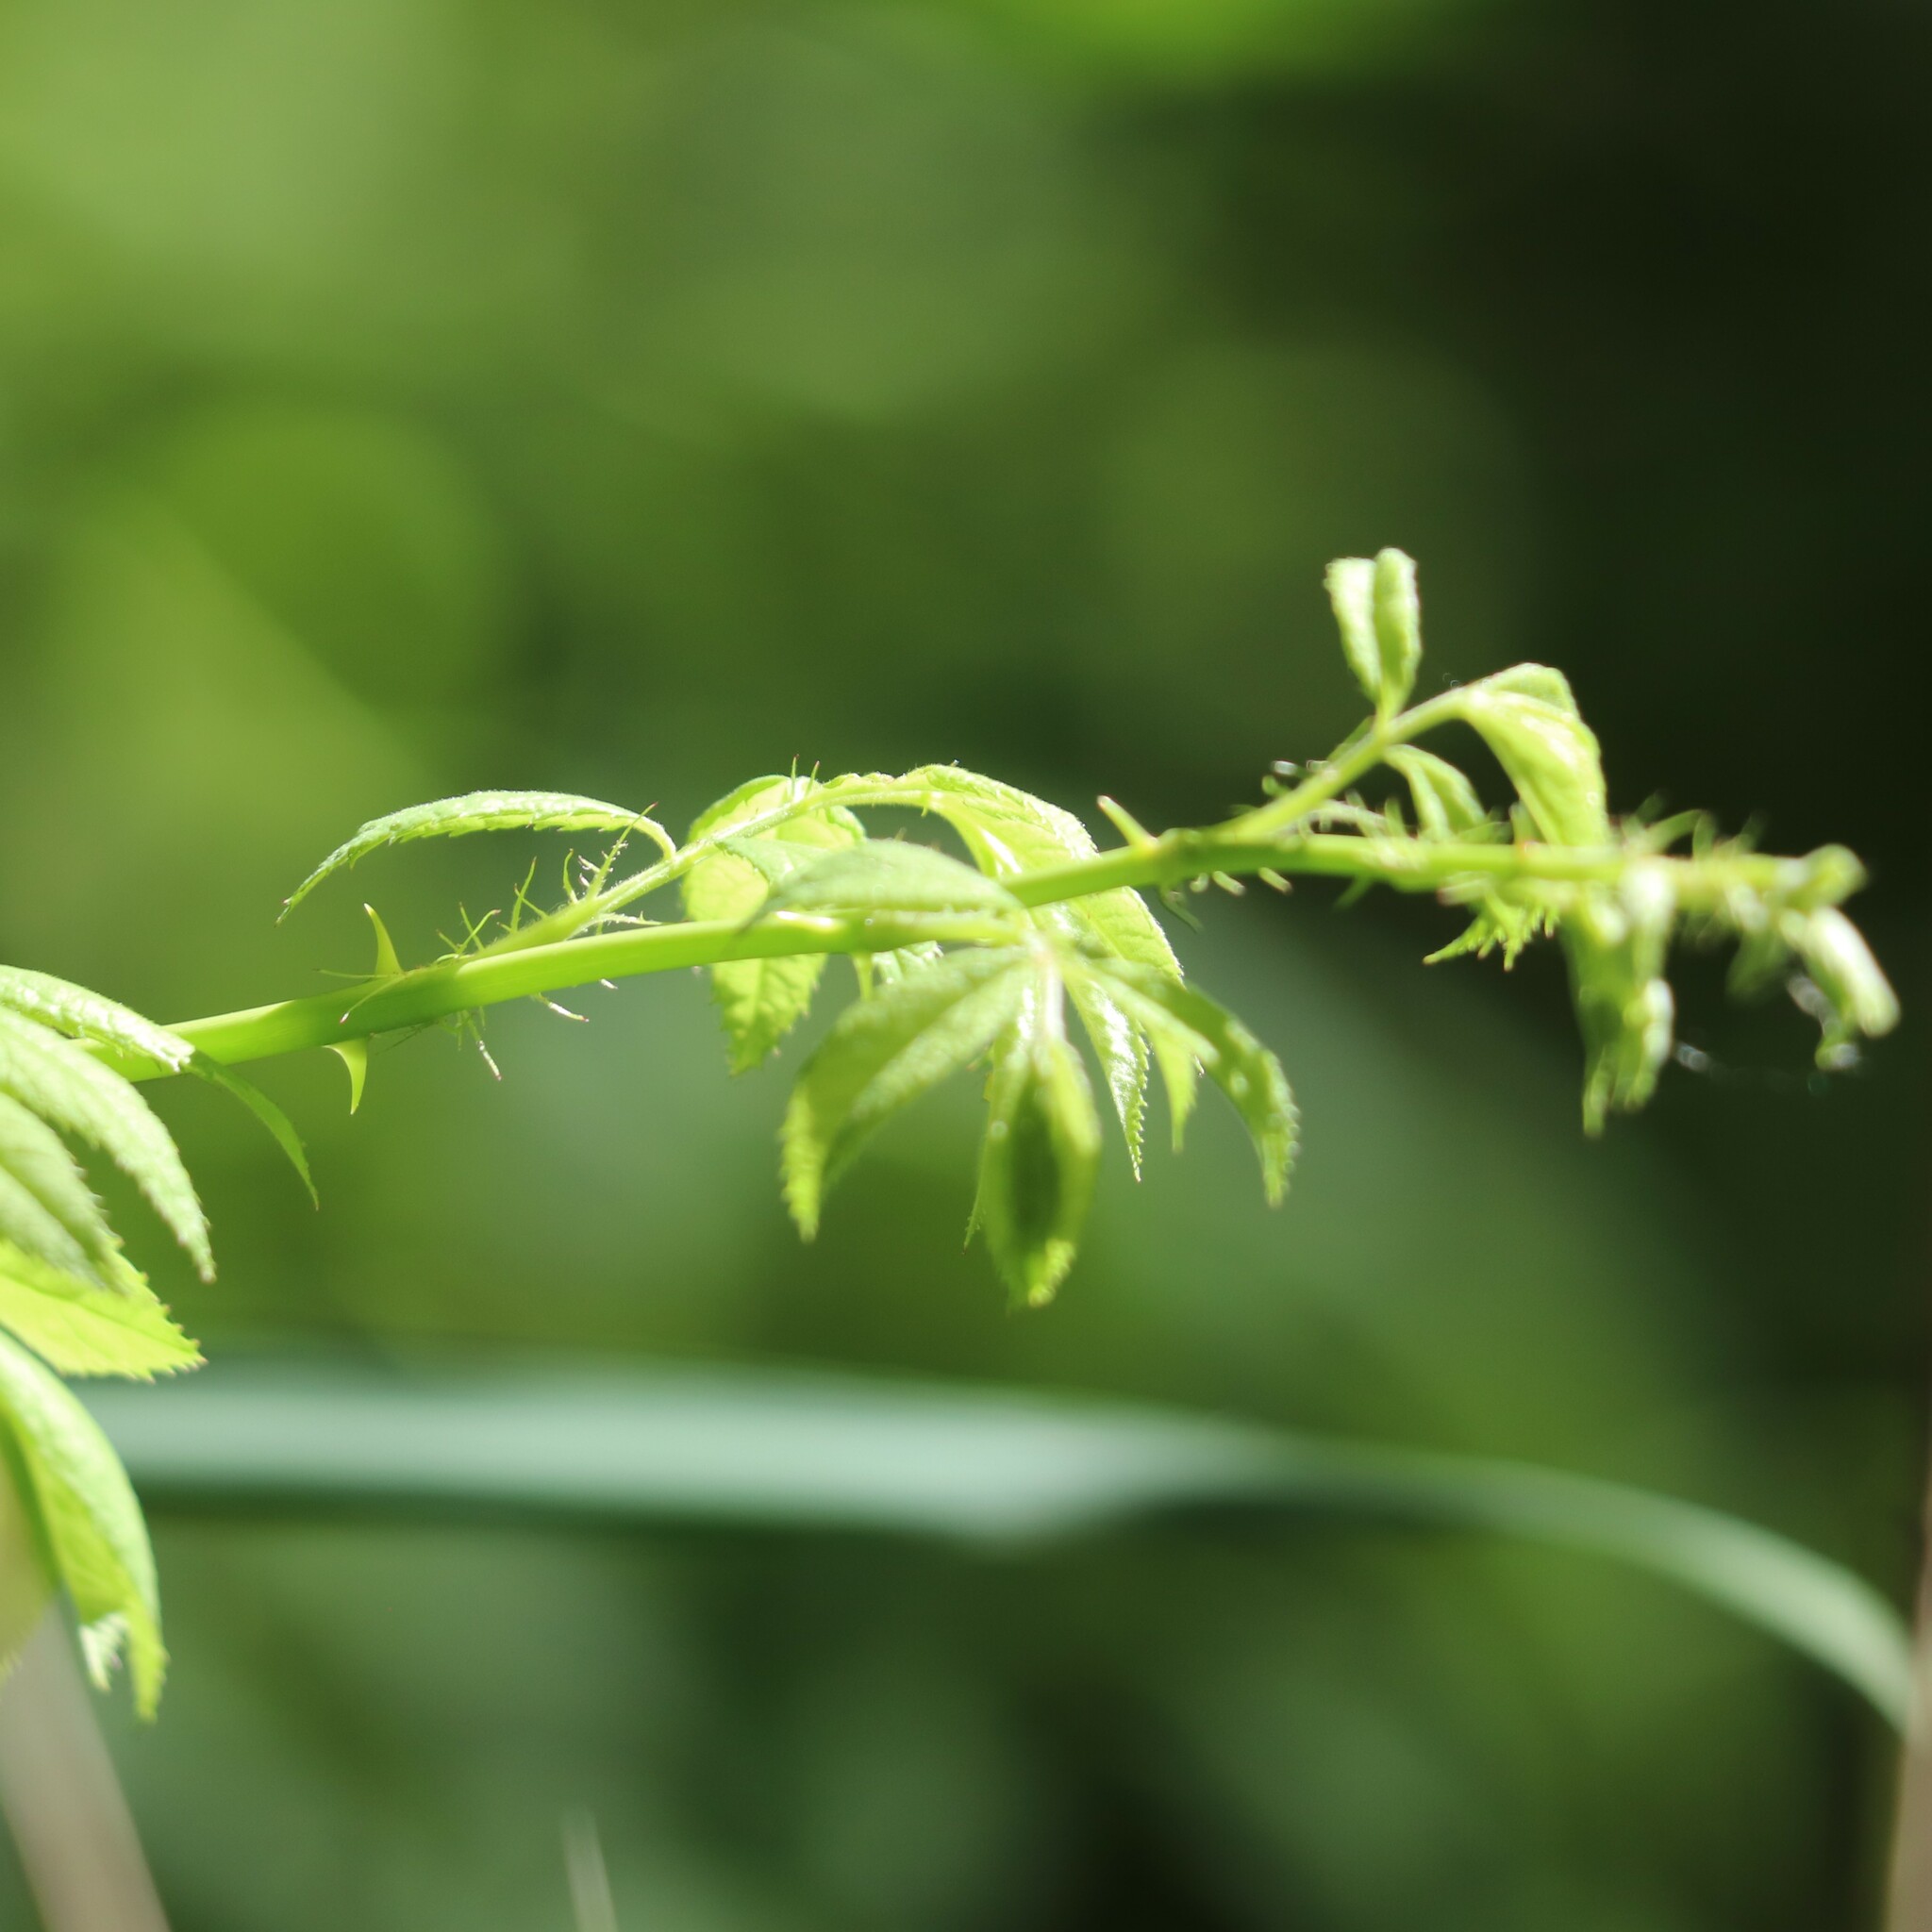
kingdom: Plantae
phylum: Tracheophyta
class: Magnoliopsida
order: Rosales
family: Rosaceae
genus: Rosa
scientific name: Rosa multiflora
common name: Multiflora rose
